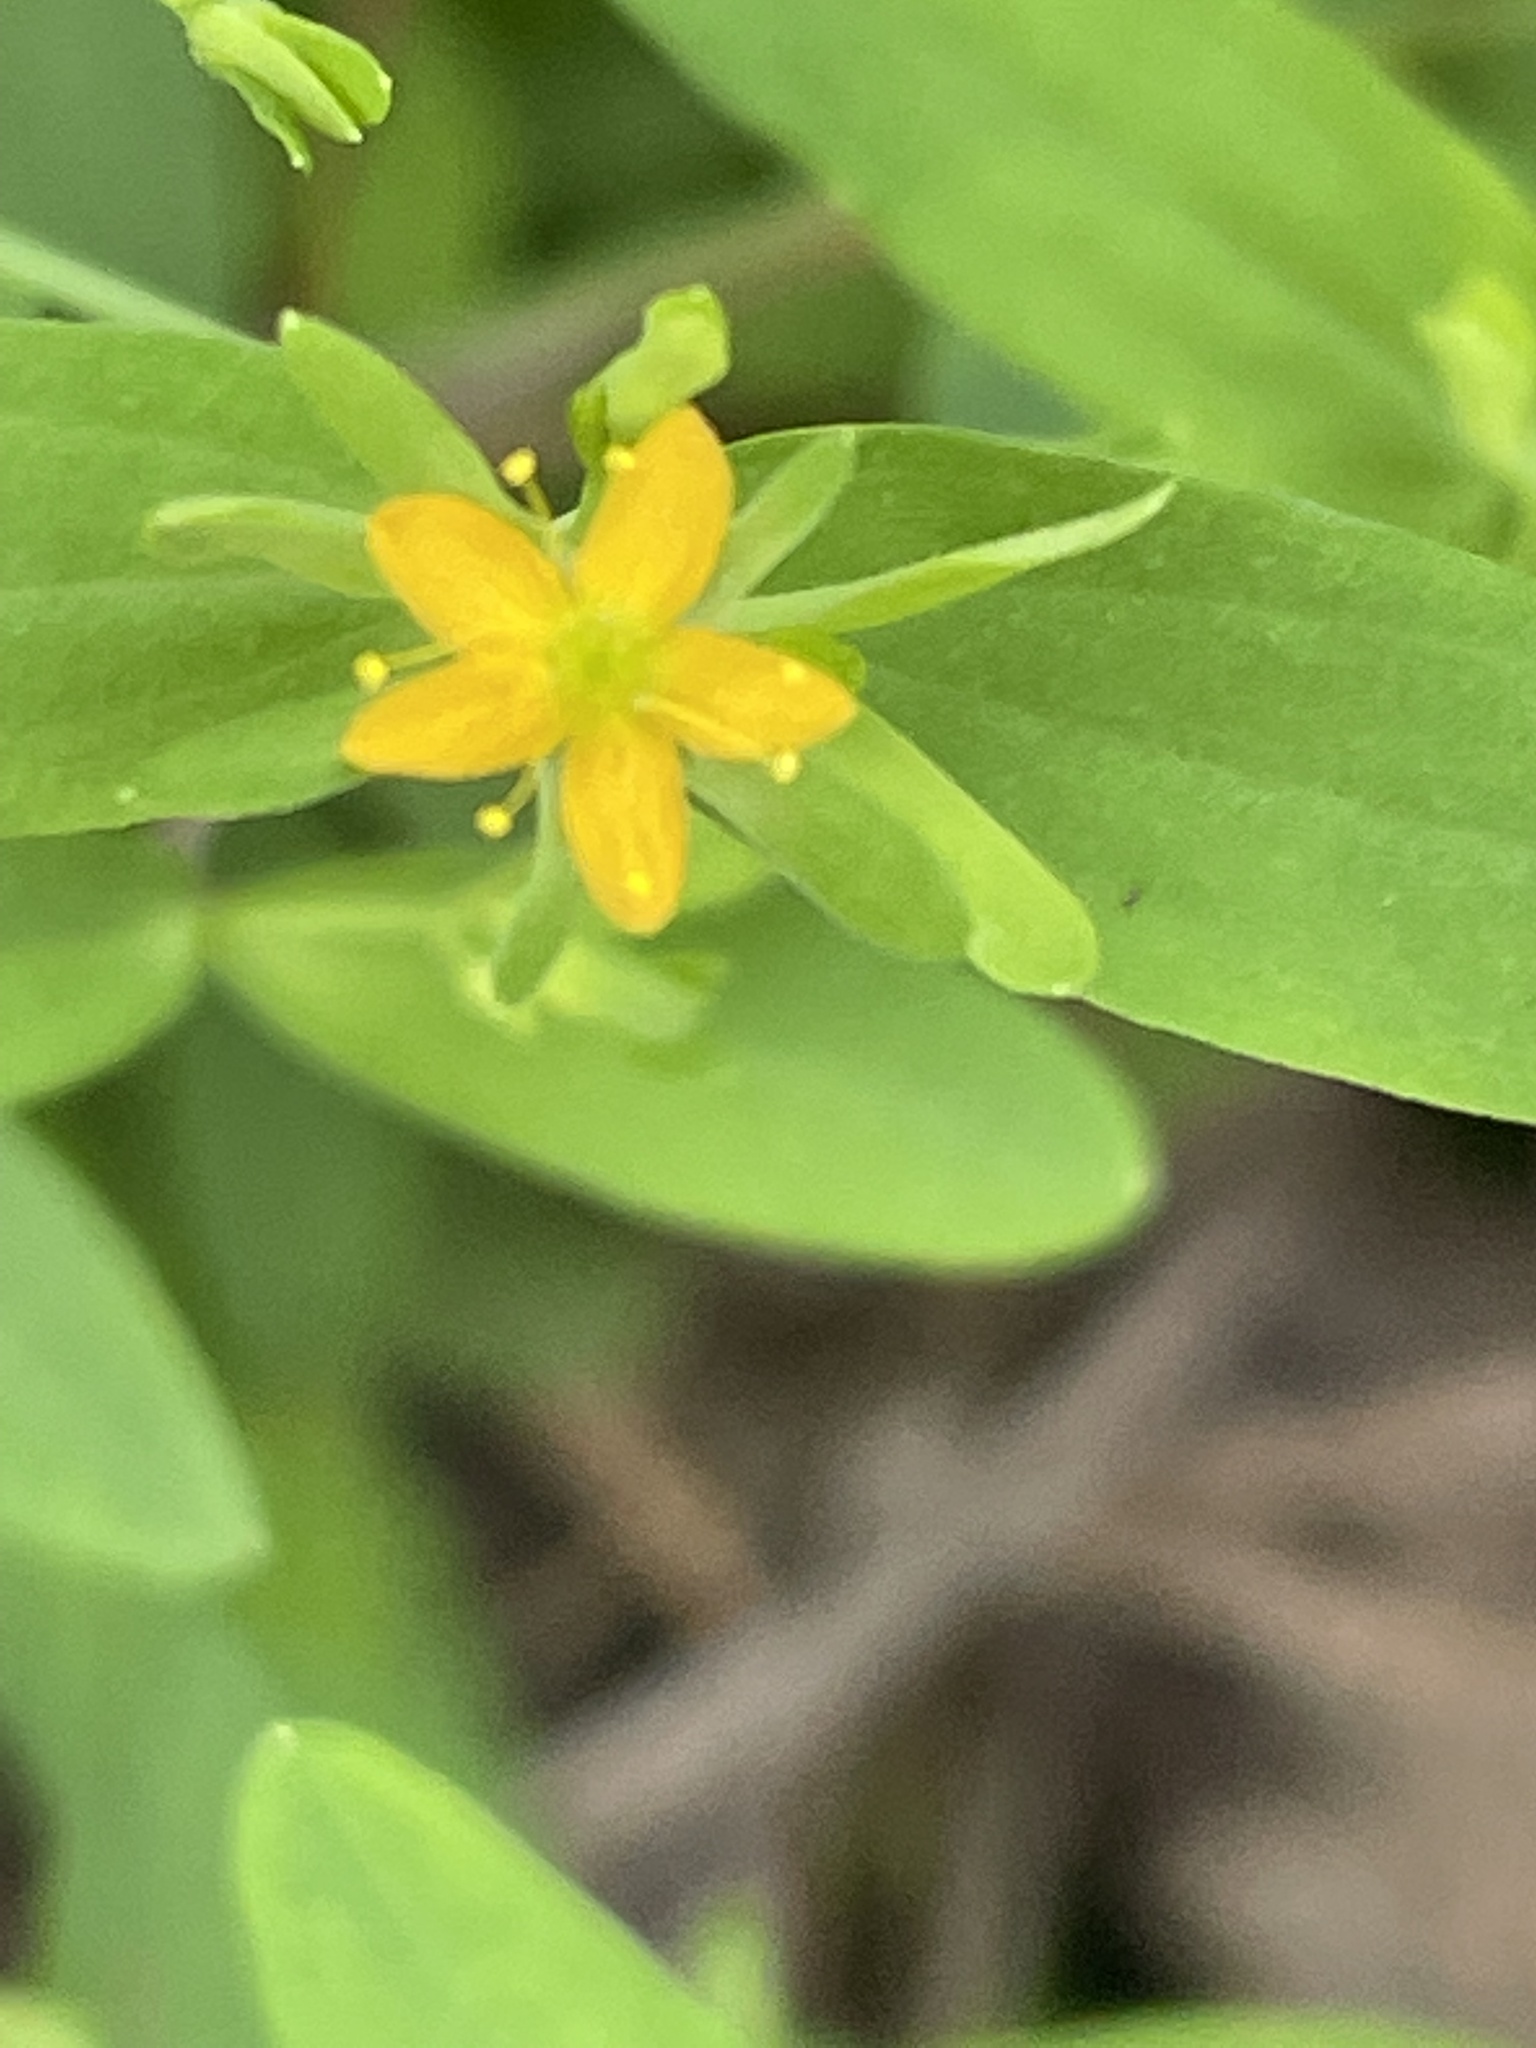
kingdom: Plantae
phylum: Tracheophyta
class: Magnoliopsida
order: Malpighiales
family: Hypericaceae
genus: Hypericum
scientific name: Hypericum mutilum
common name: Dwarf st. john's-wort
